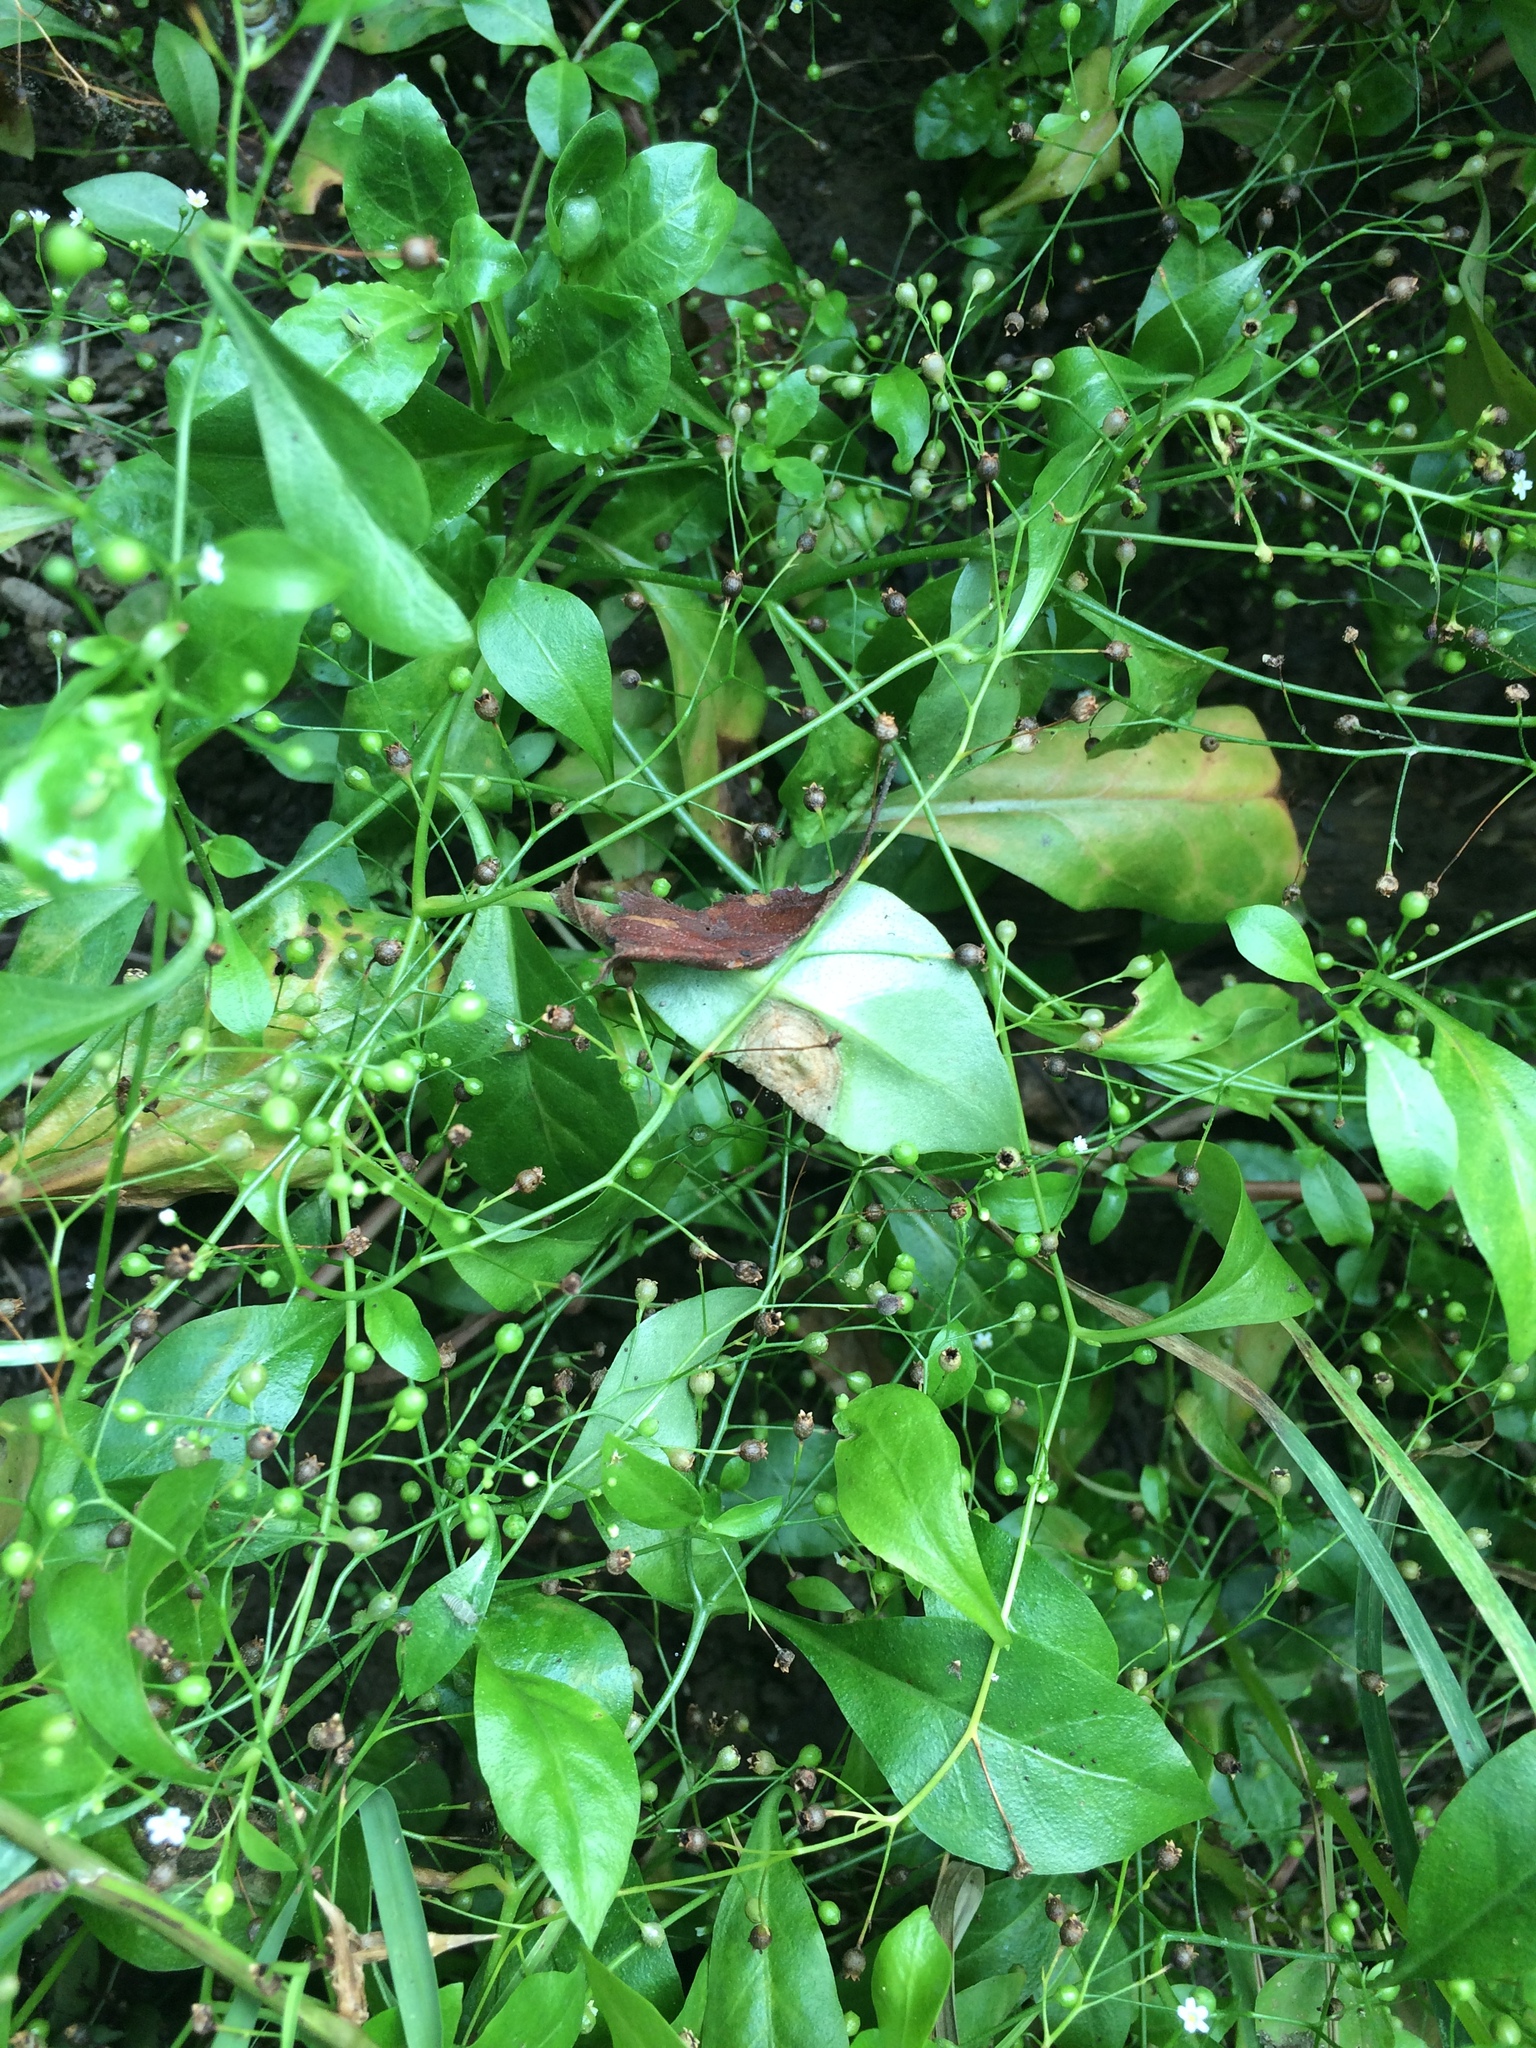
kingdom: Plantae
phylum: Tracheophyta
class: Magnoliopsida
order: Ericales
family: Primulaceae
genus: Samolus
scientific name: Samolus parviflorus
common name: False water pimpernel
